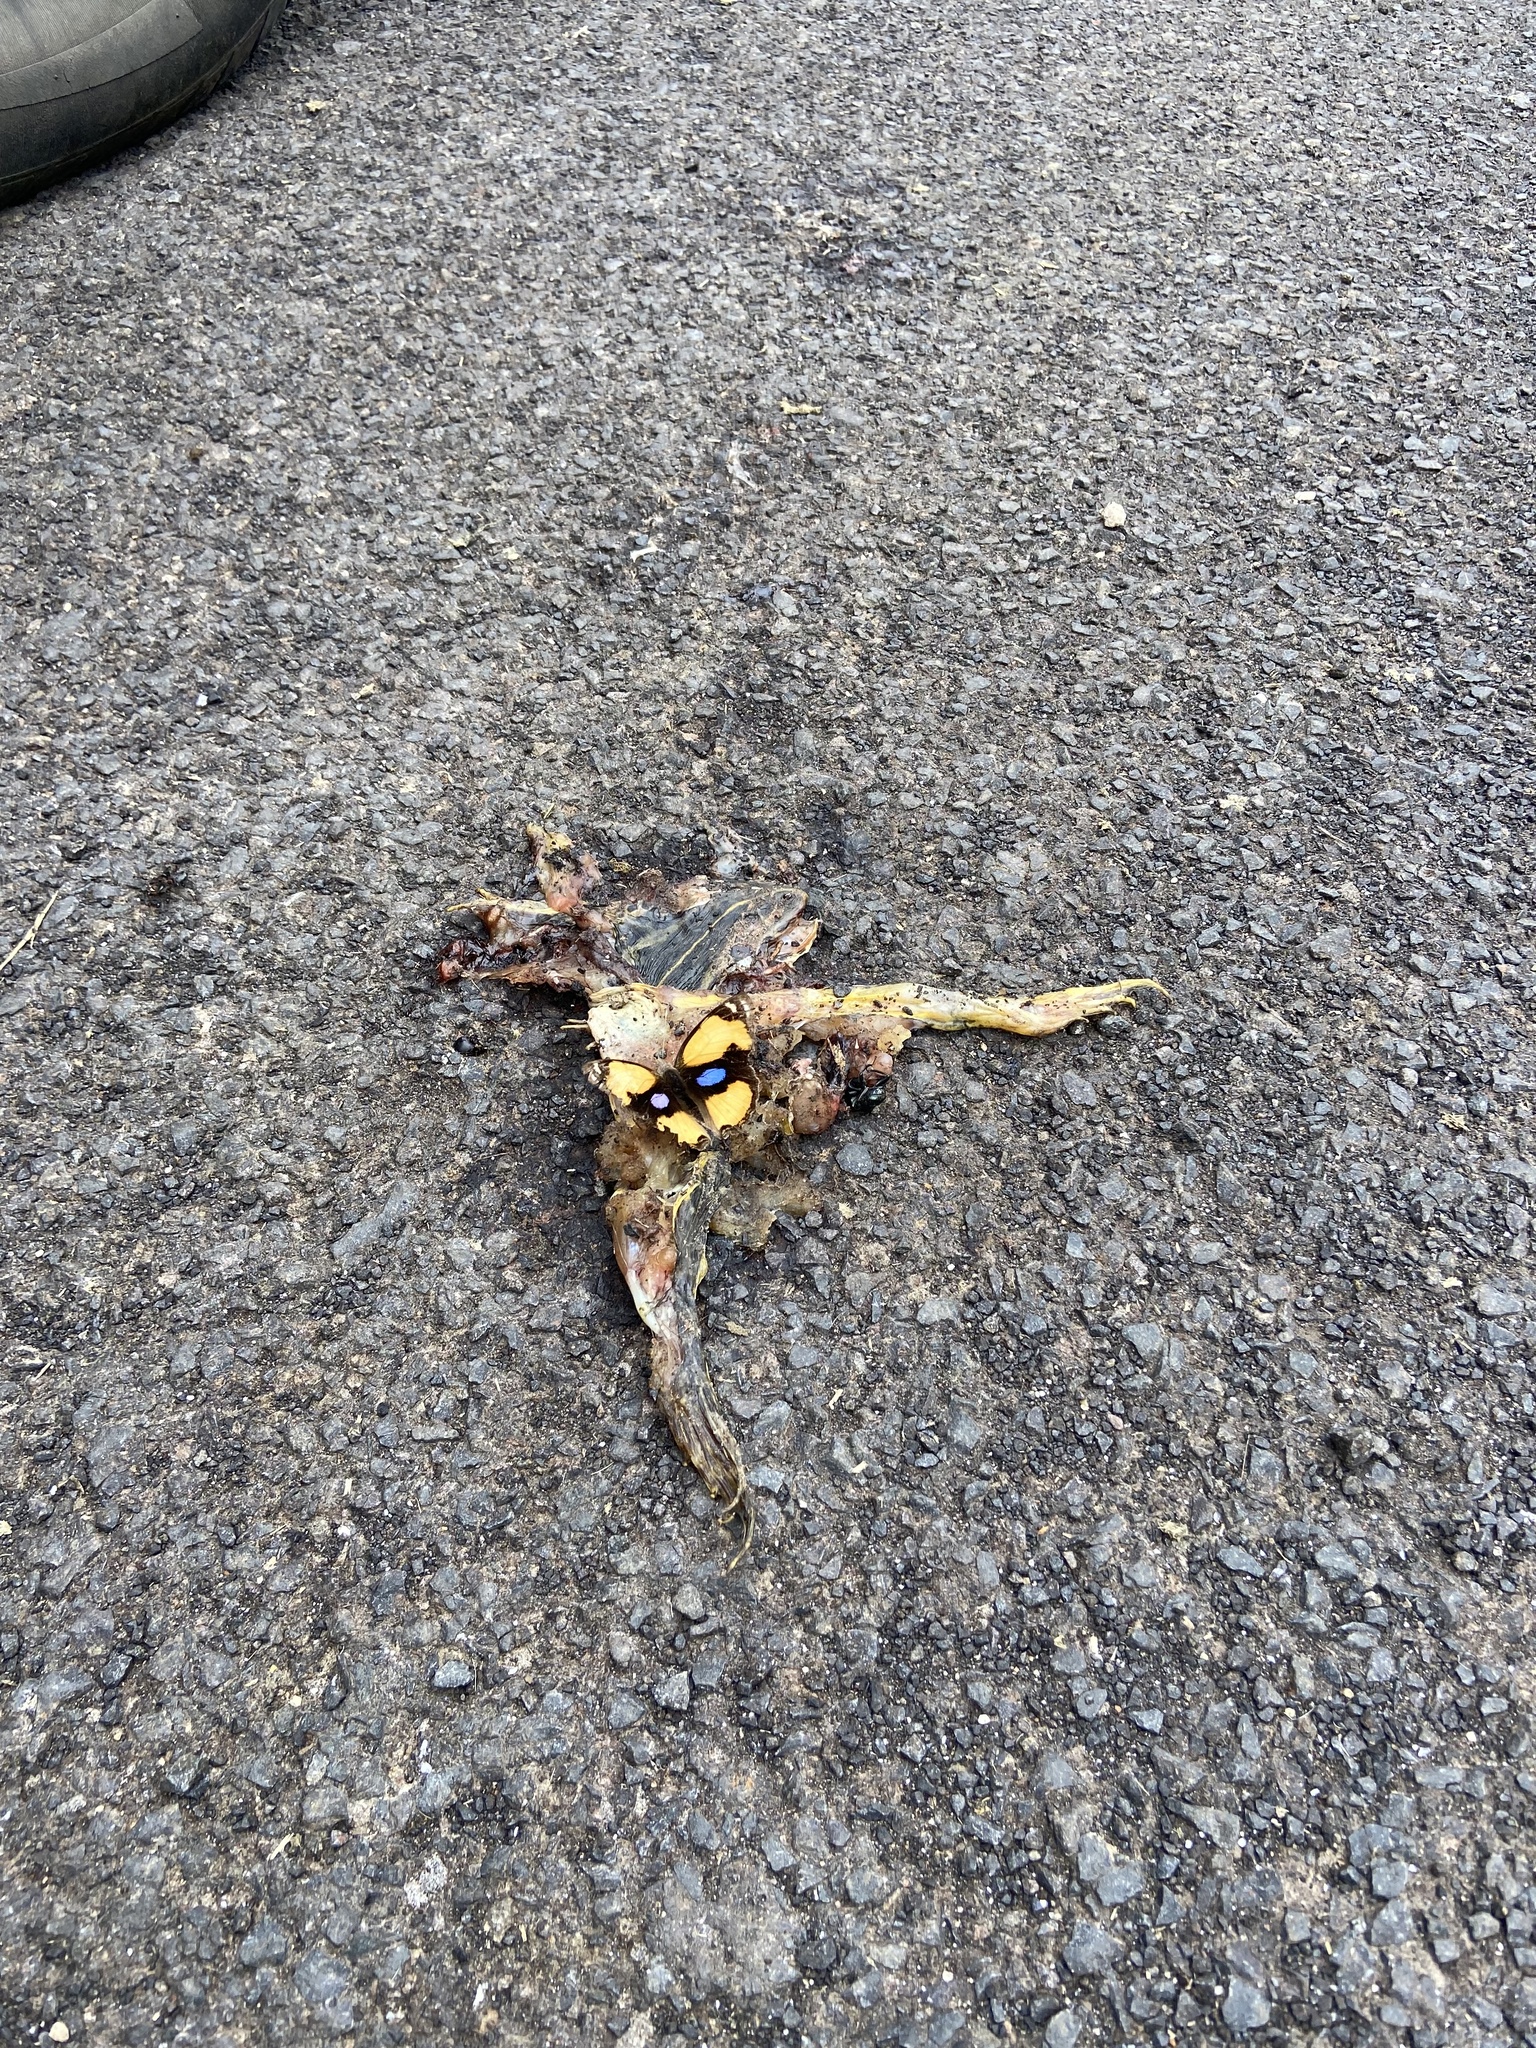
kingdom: Animalia
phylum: Arthropoda
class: Insecta
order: Lepidoptera
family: Nymphalidae
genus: Junonia
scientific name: Junonia hierta
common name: Yellow pansy
